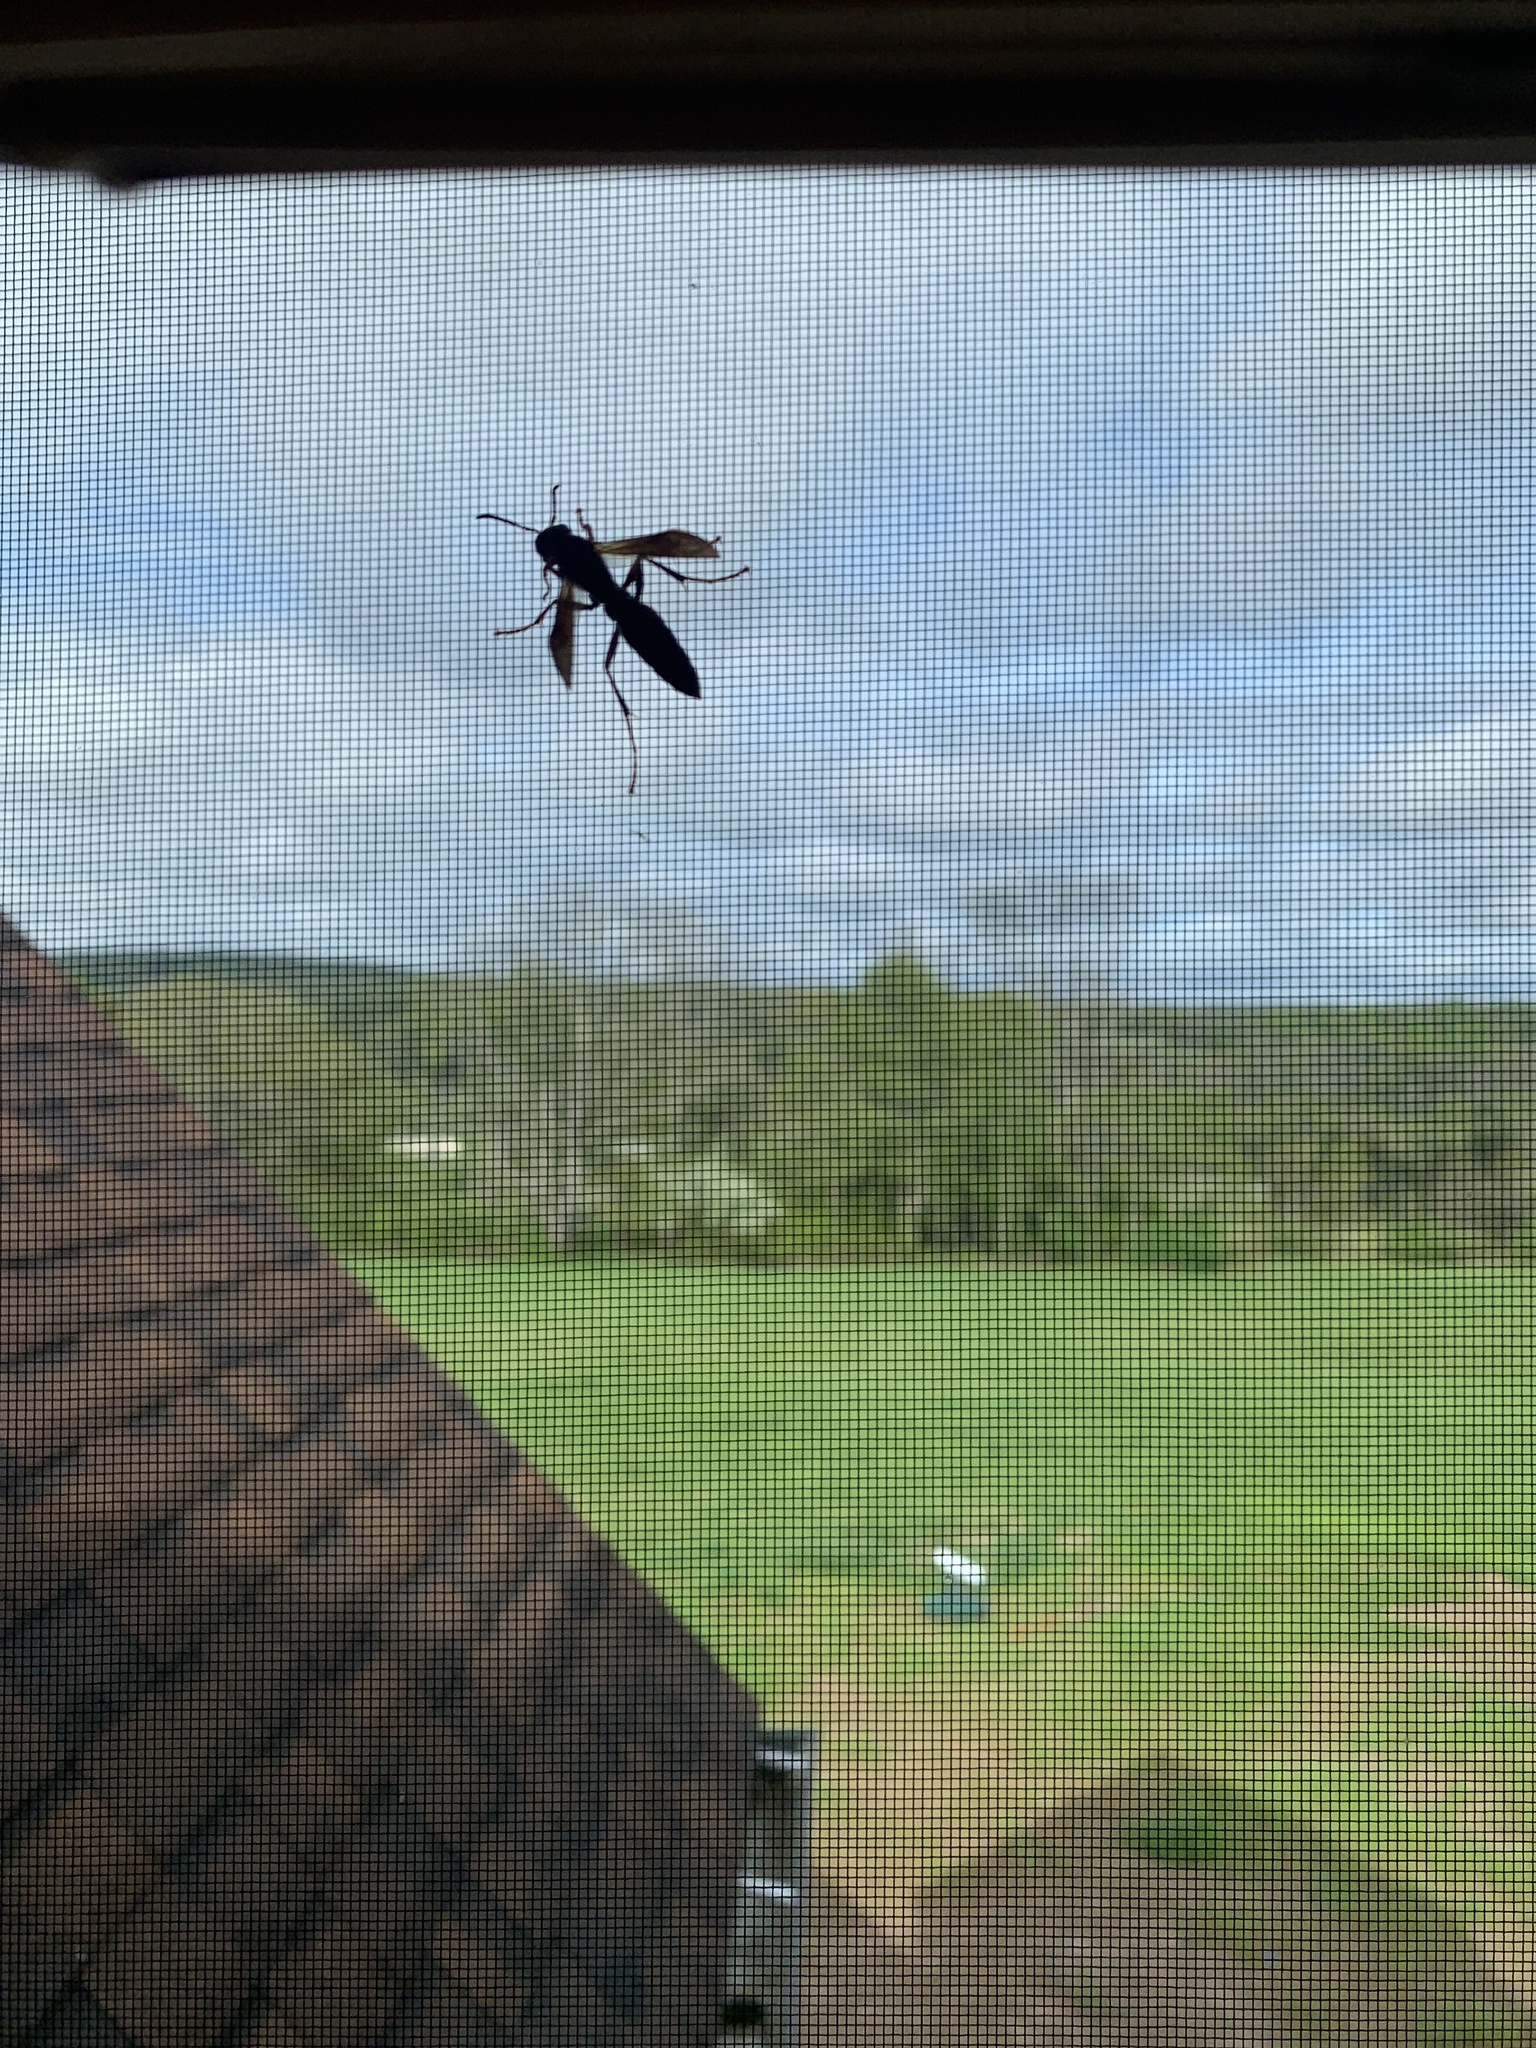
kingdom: Animalia
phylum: Arthropoda
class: Insecta
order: Hymenoptera
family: Eumenidae
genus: Polistes
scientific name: Polistes
